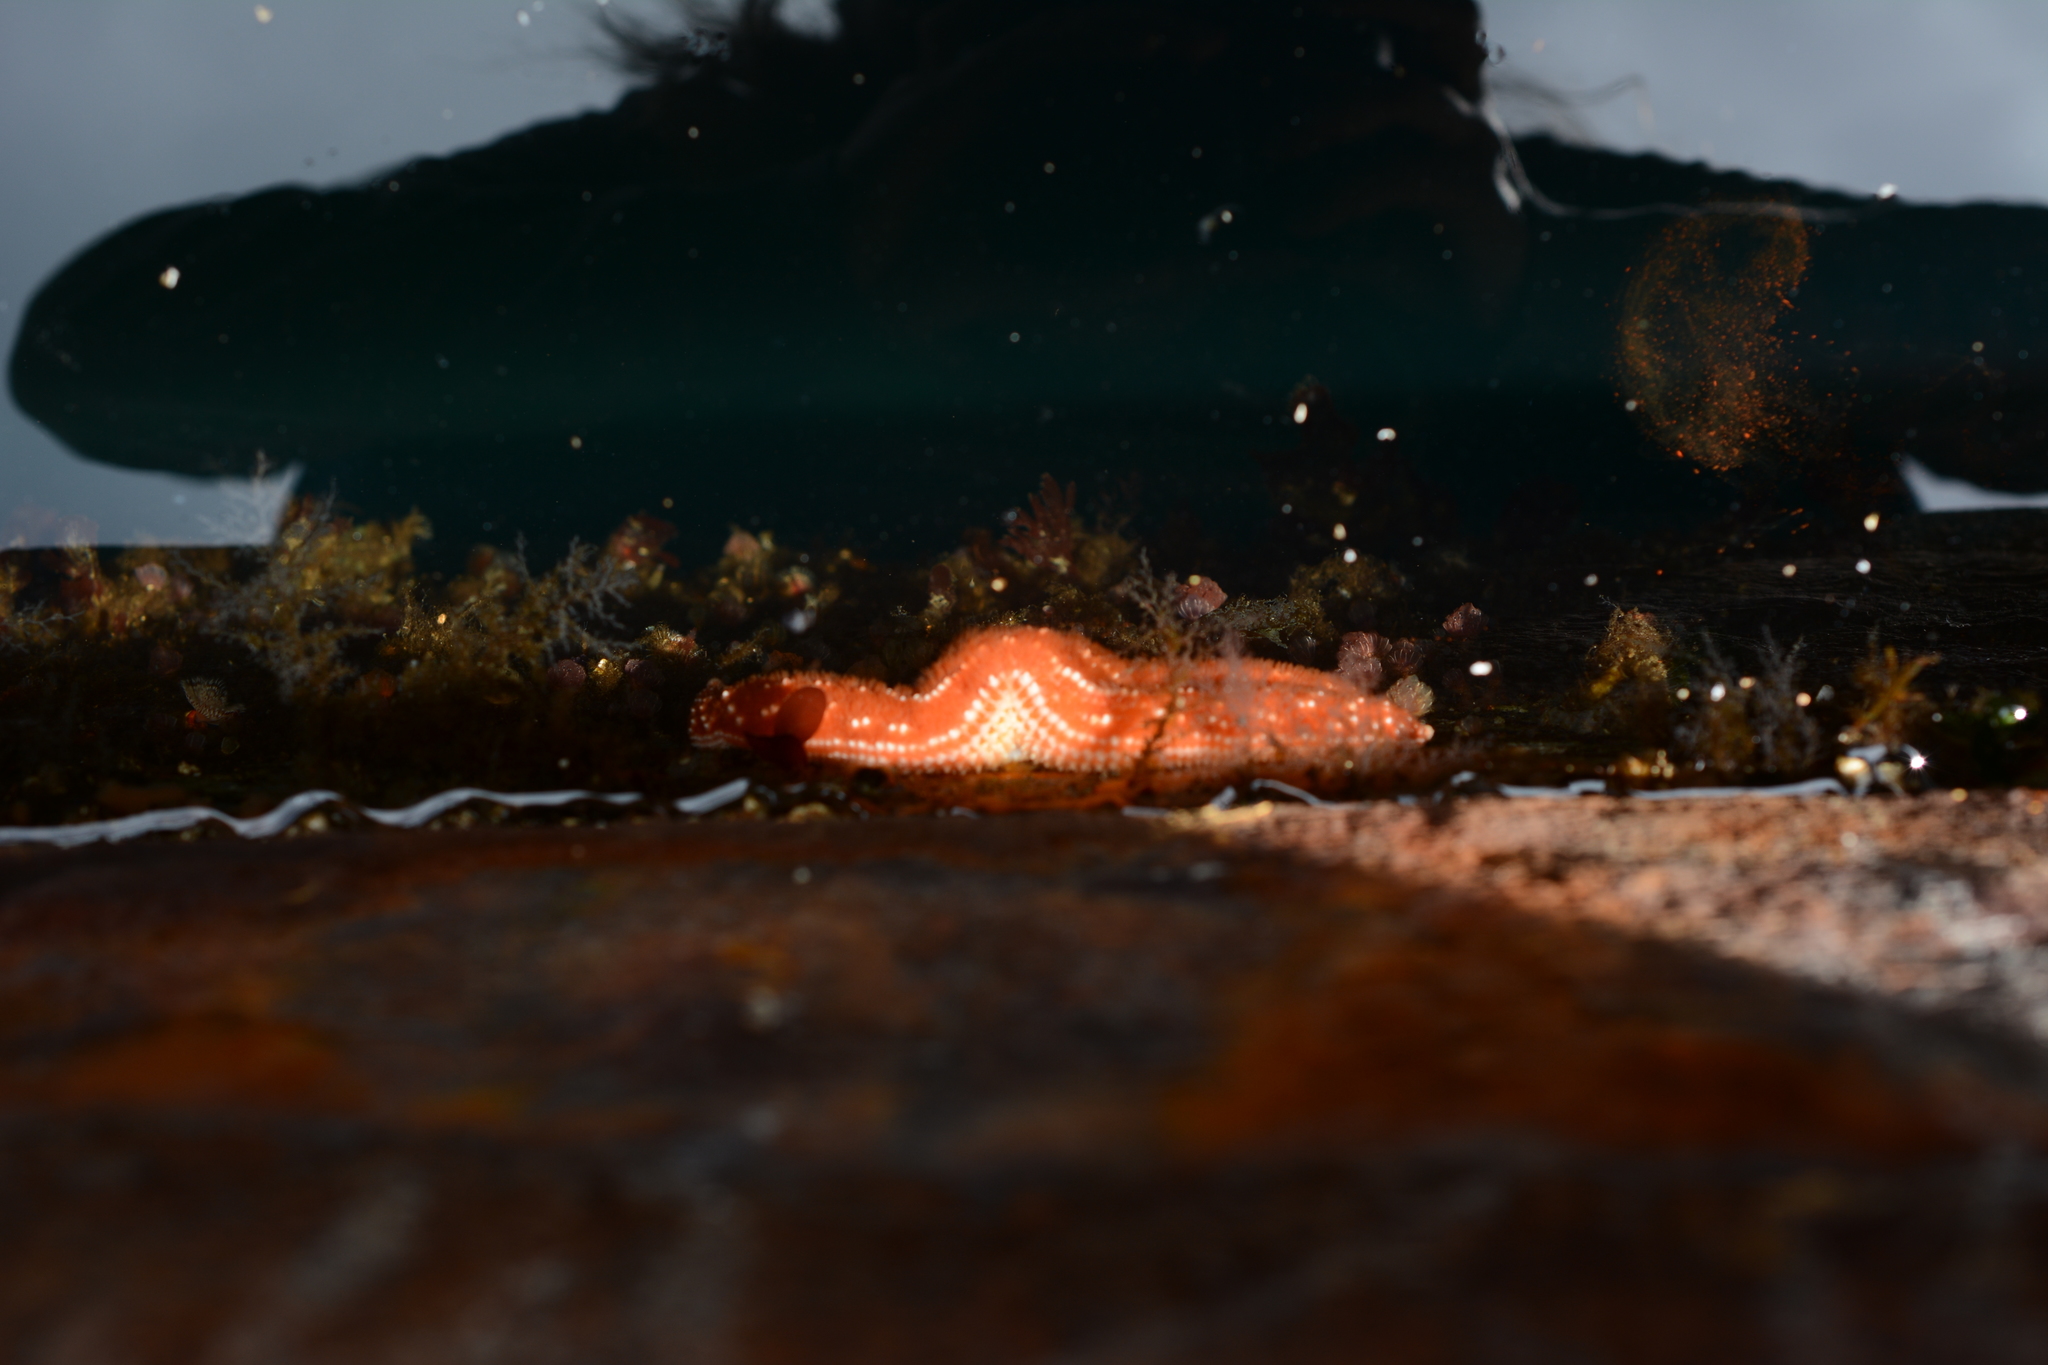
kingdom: Animalia
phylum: Echinodermata
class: Asteroidea
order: Forcipulatida
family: Asteriidae
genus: Evasterias
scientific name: Evasterias troschelii
